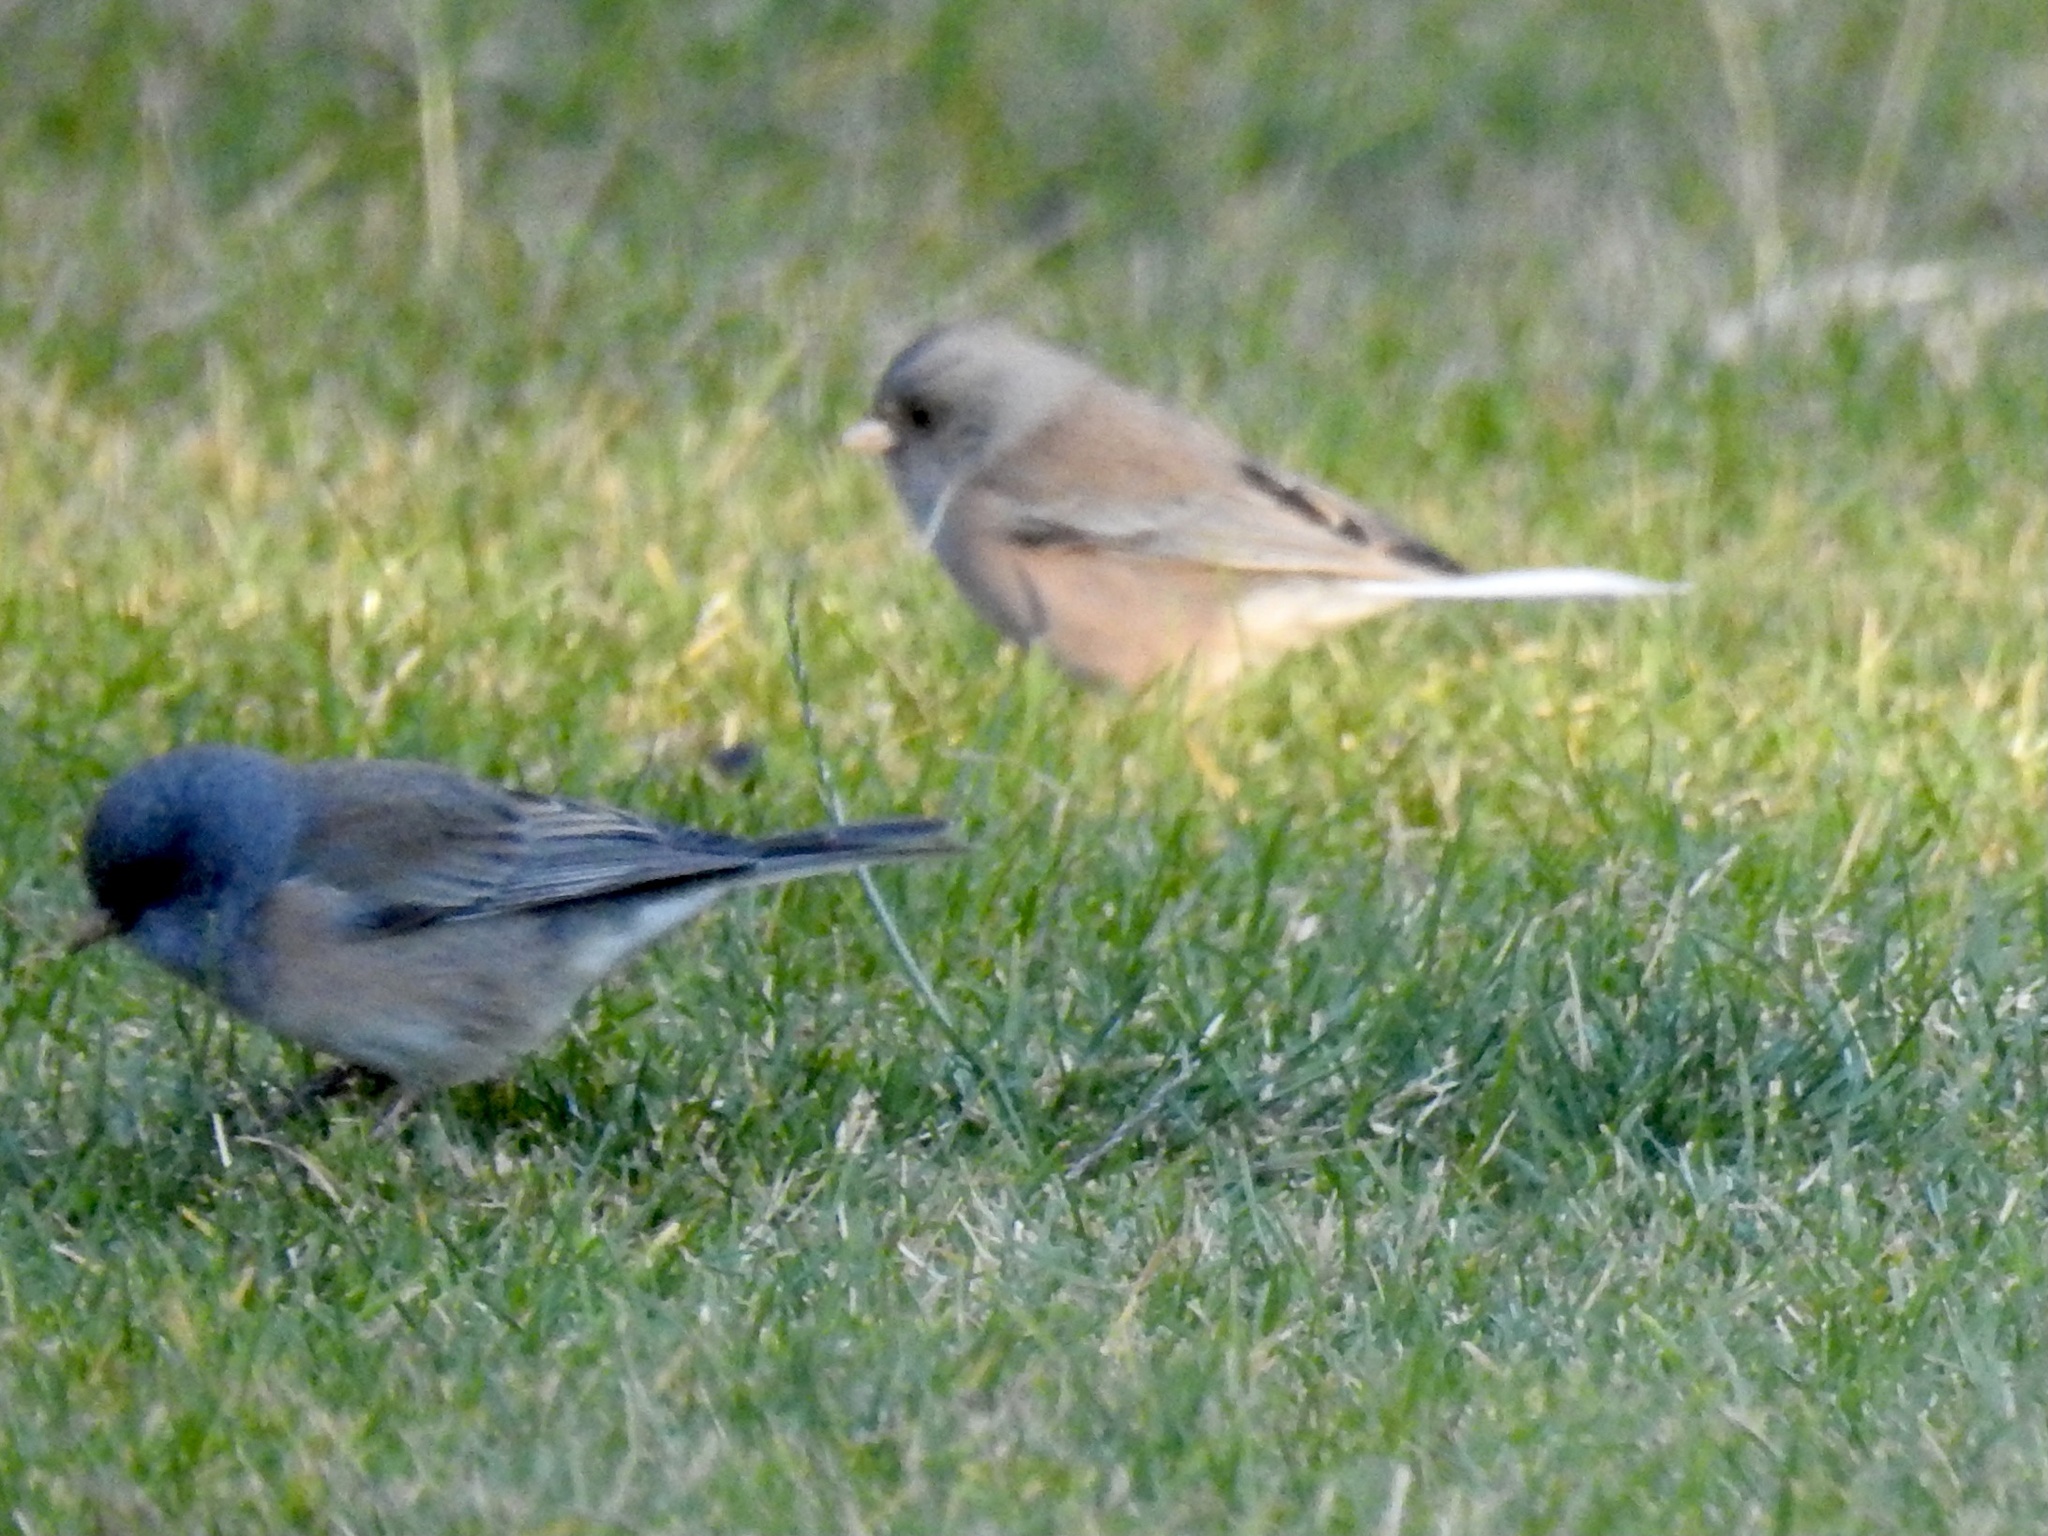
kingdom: Animalia
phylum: Chordata
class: Aves
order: Passeriformes
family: Passerellidae
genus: Junco
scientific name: Junco hyemalis
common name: Dark-eyed junco
